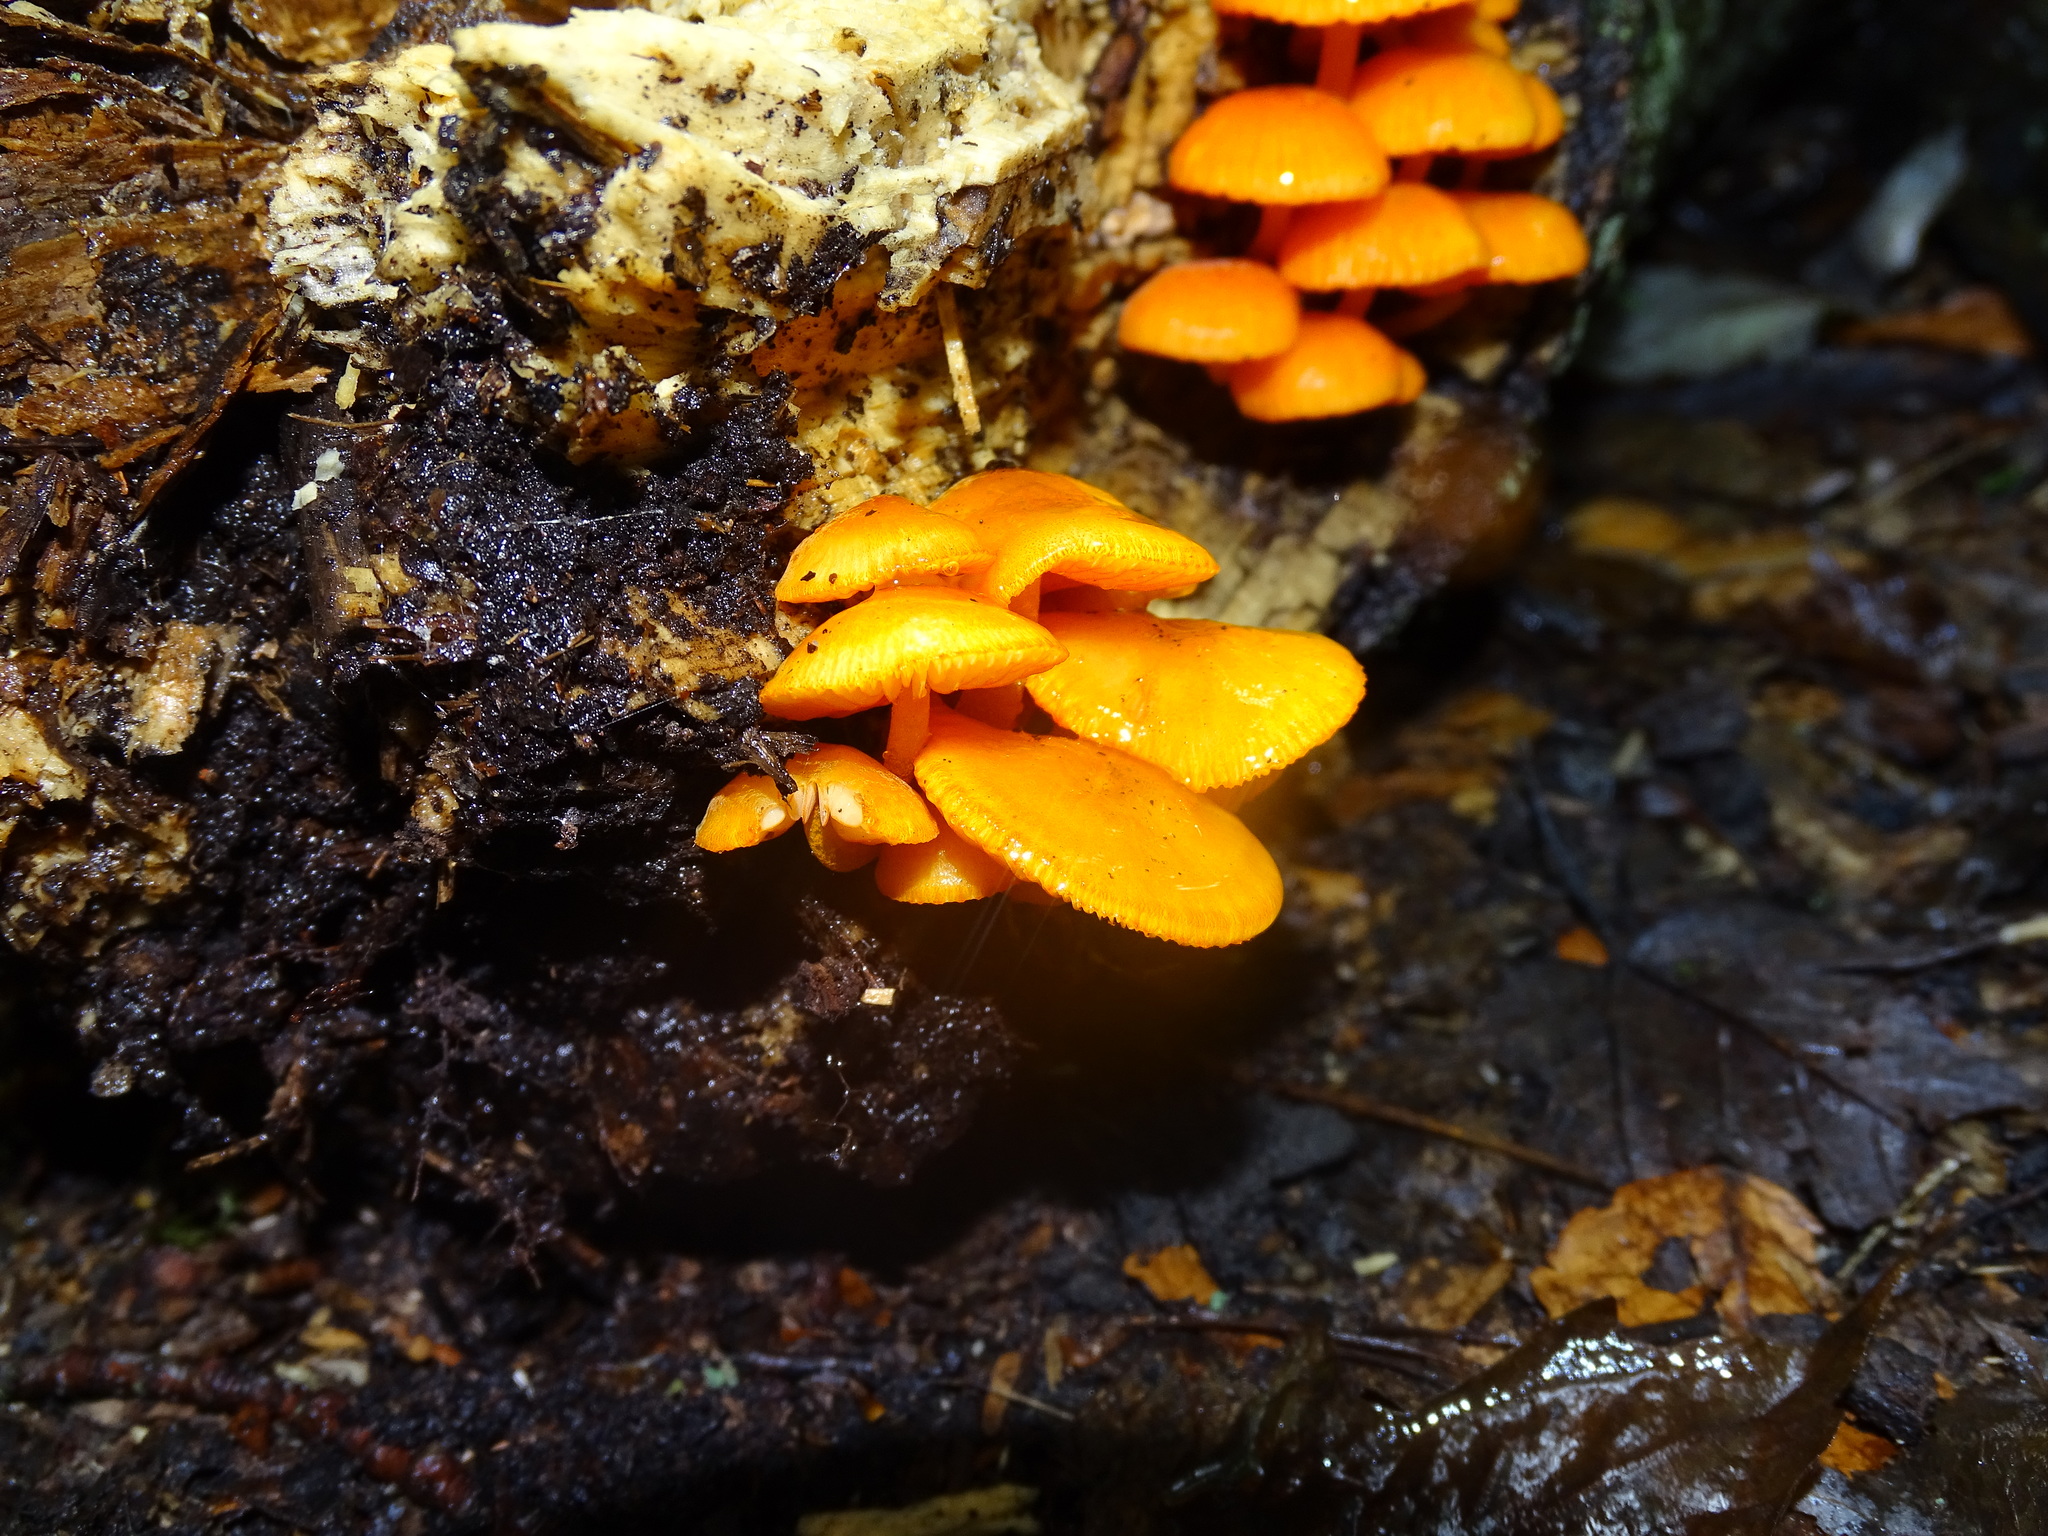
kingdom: Fungi
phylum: Basidiomycota
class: Agaricomycetes
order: Agaricales
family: Mycenaceae
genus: Mycena
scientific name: Mycena leaiana
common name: Orange mycena
